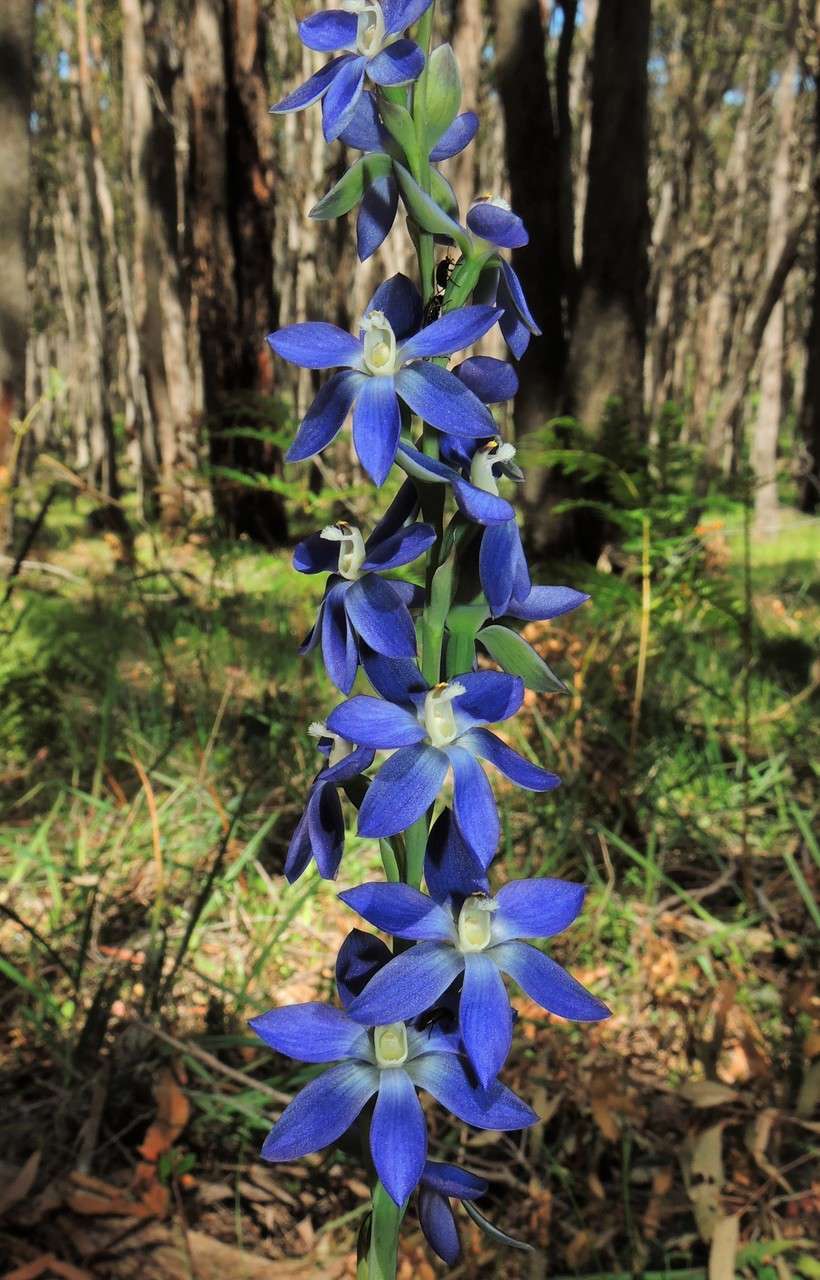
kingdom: Plantae
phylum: Tracheophyta
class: Liliopsida
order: Asparagales
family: Orchidaceae
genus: Thelymitra
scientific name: Thelymitra aristata
